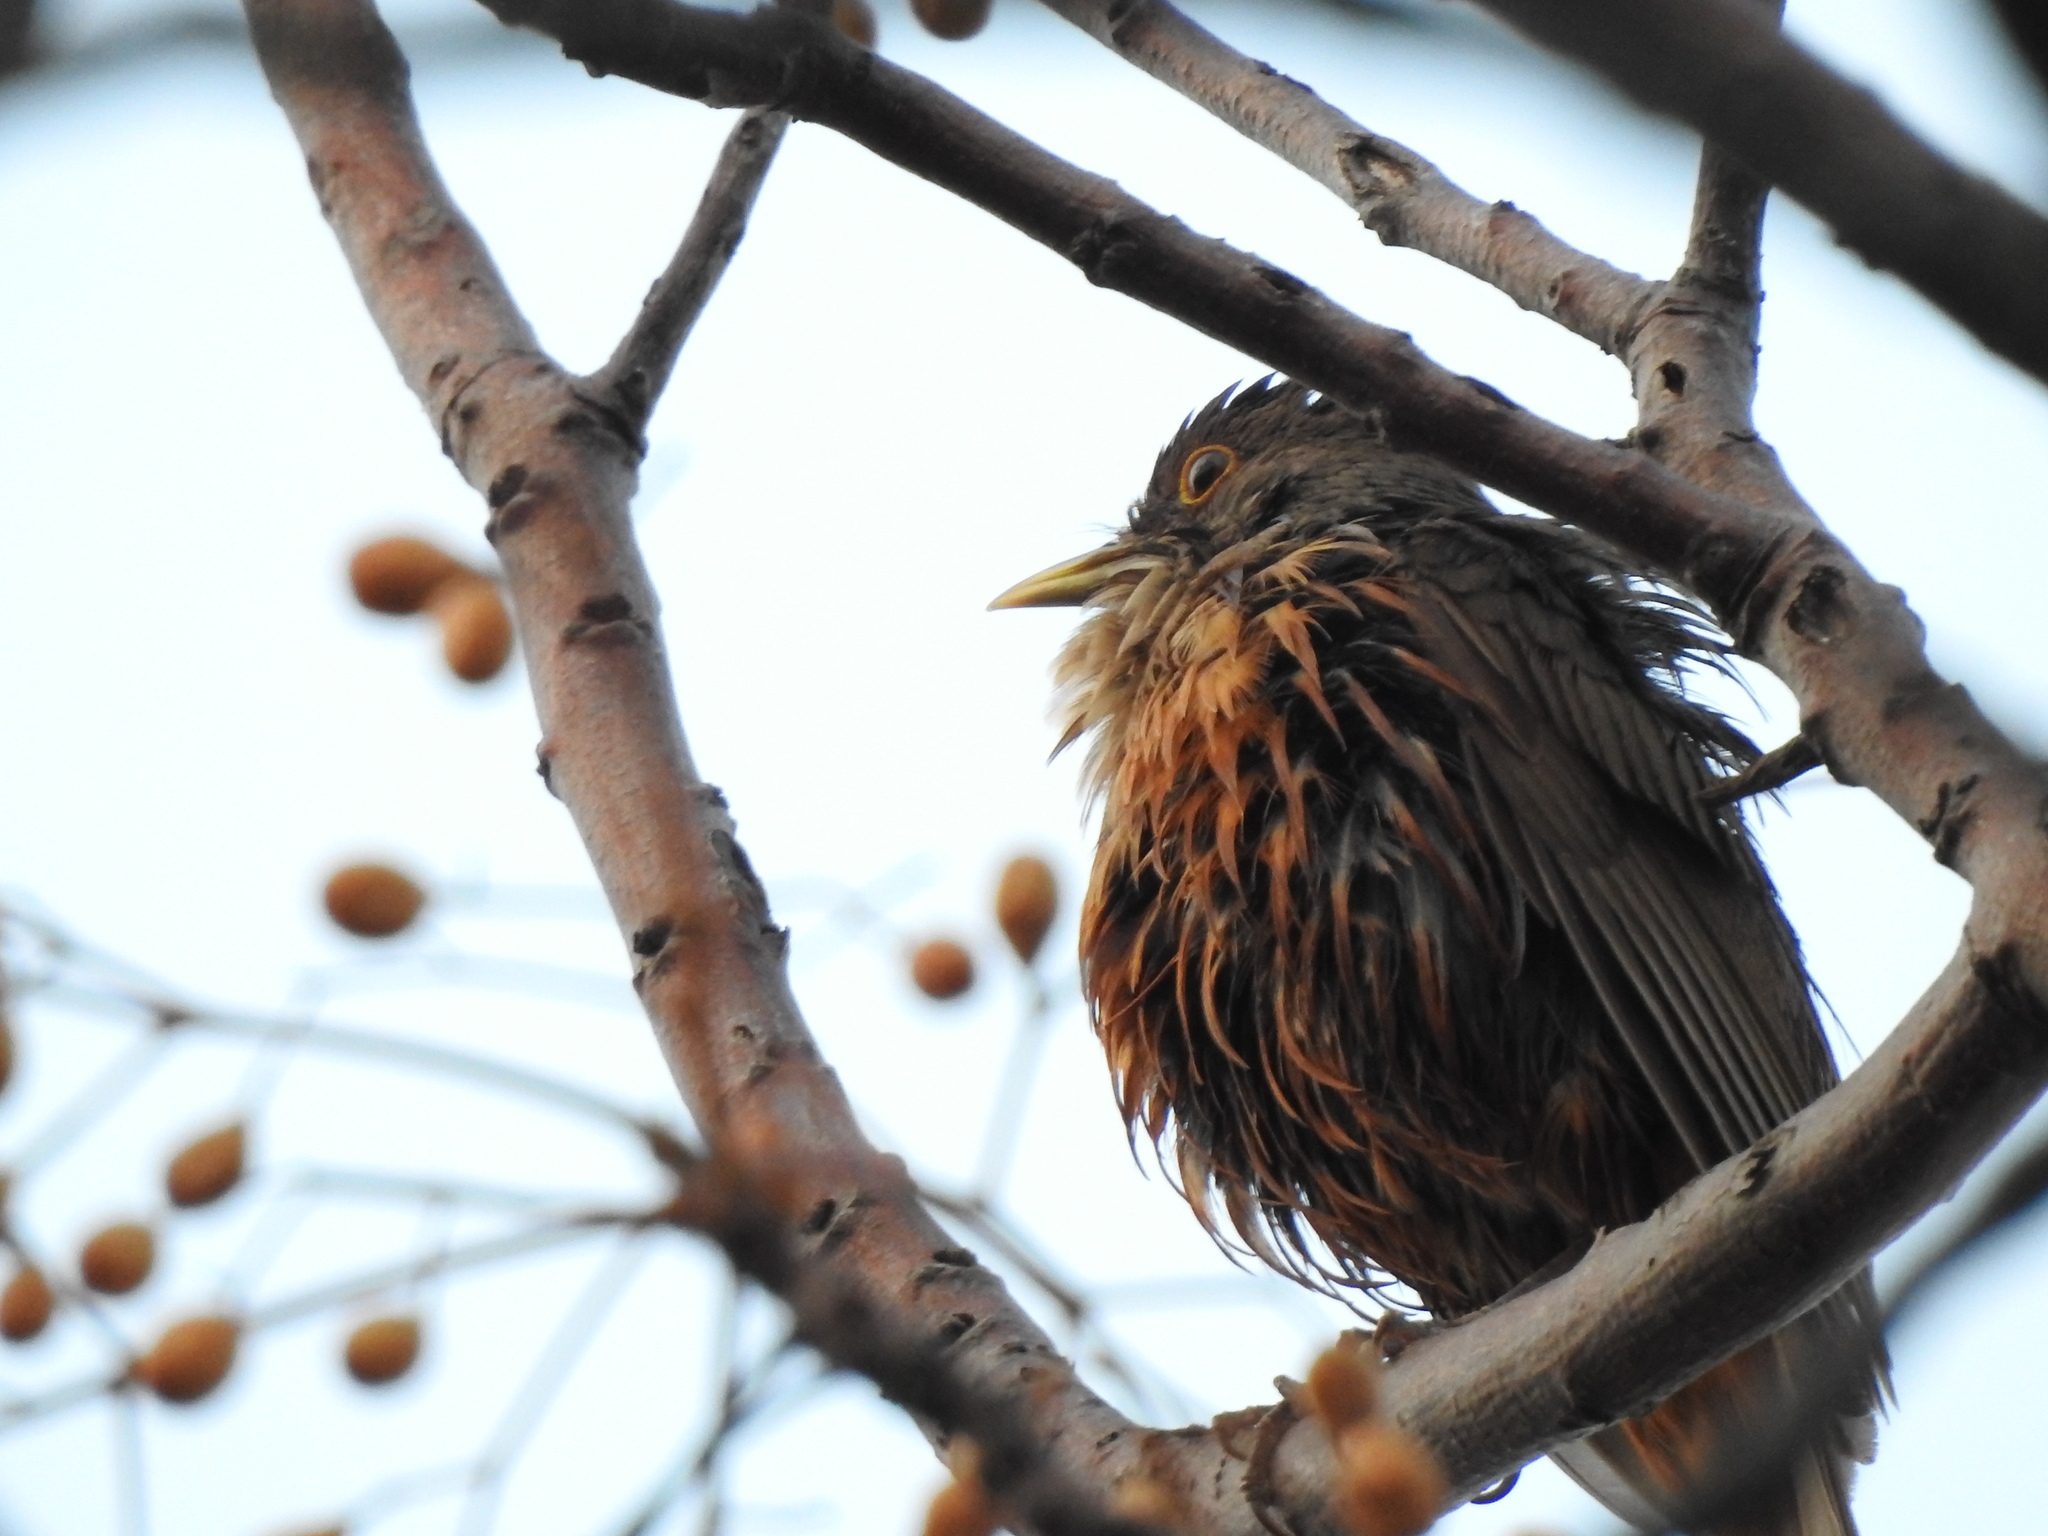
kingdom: Animalia
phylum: Chordata
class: Aves
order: Passeriformes
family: Turdidae
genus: Turdus
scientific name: Turdus rufiventris
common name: Rufous-bellied thrush
